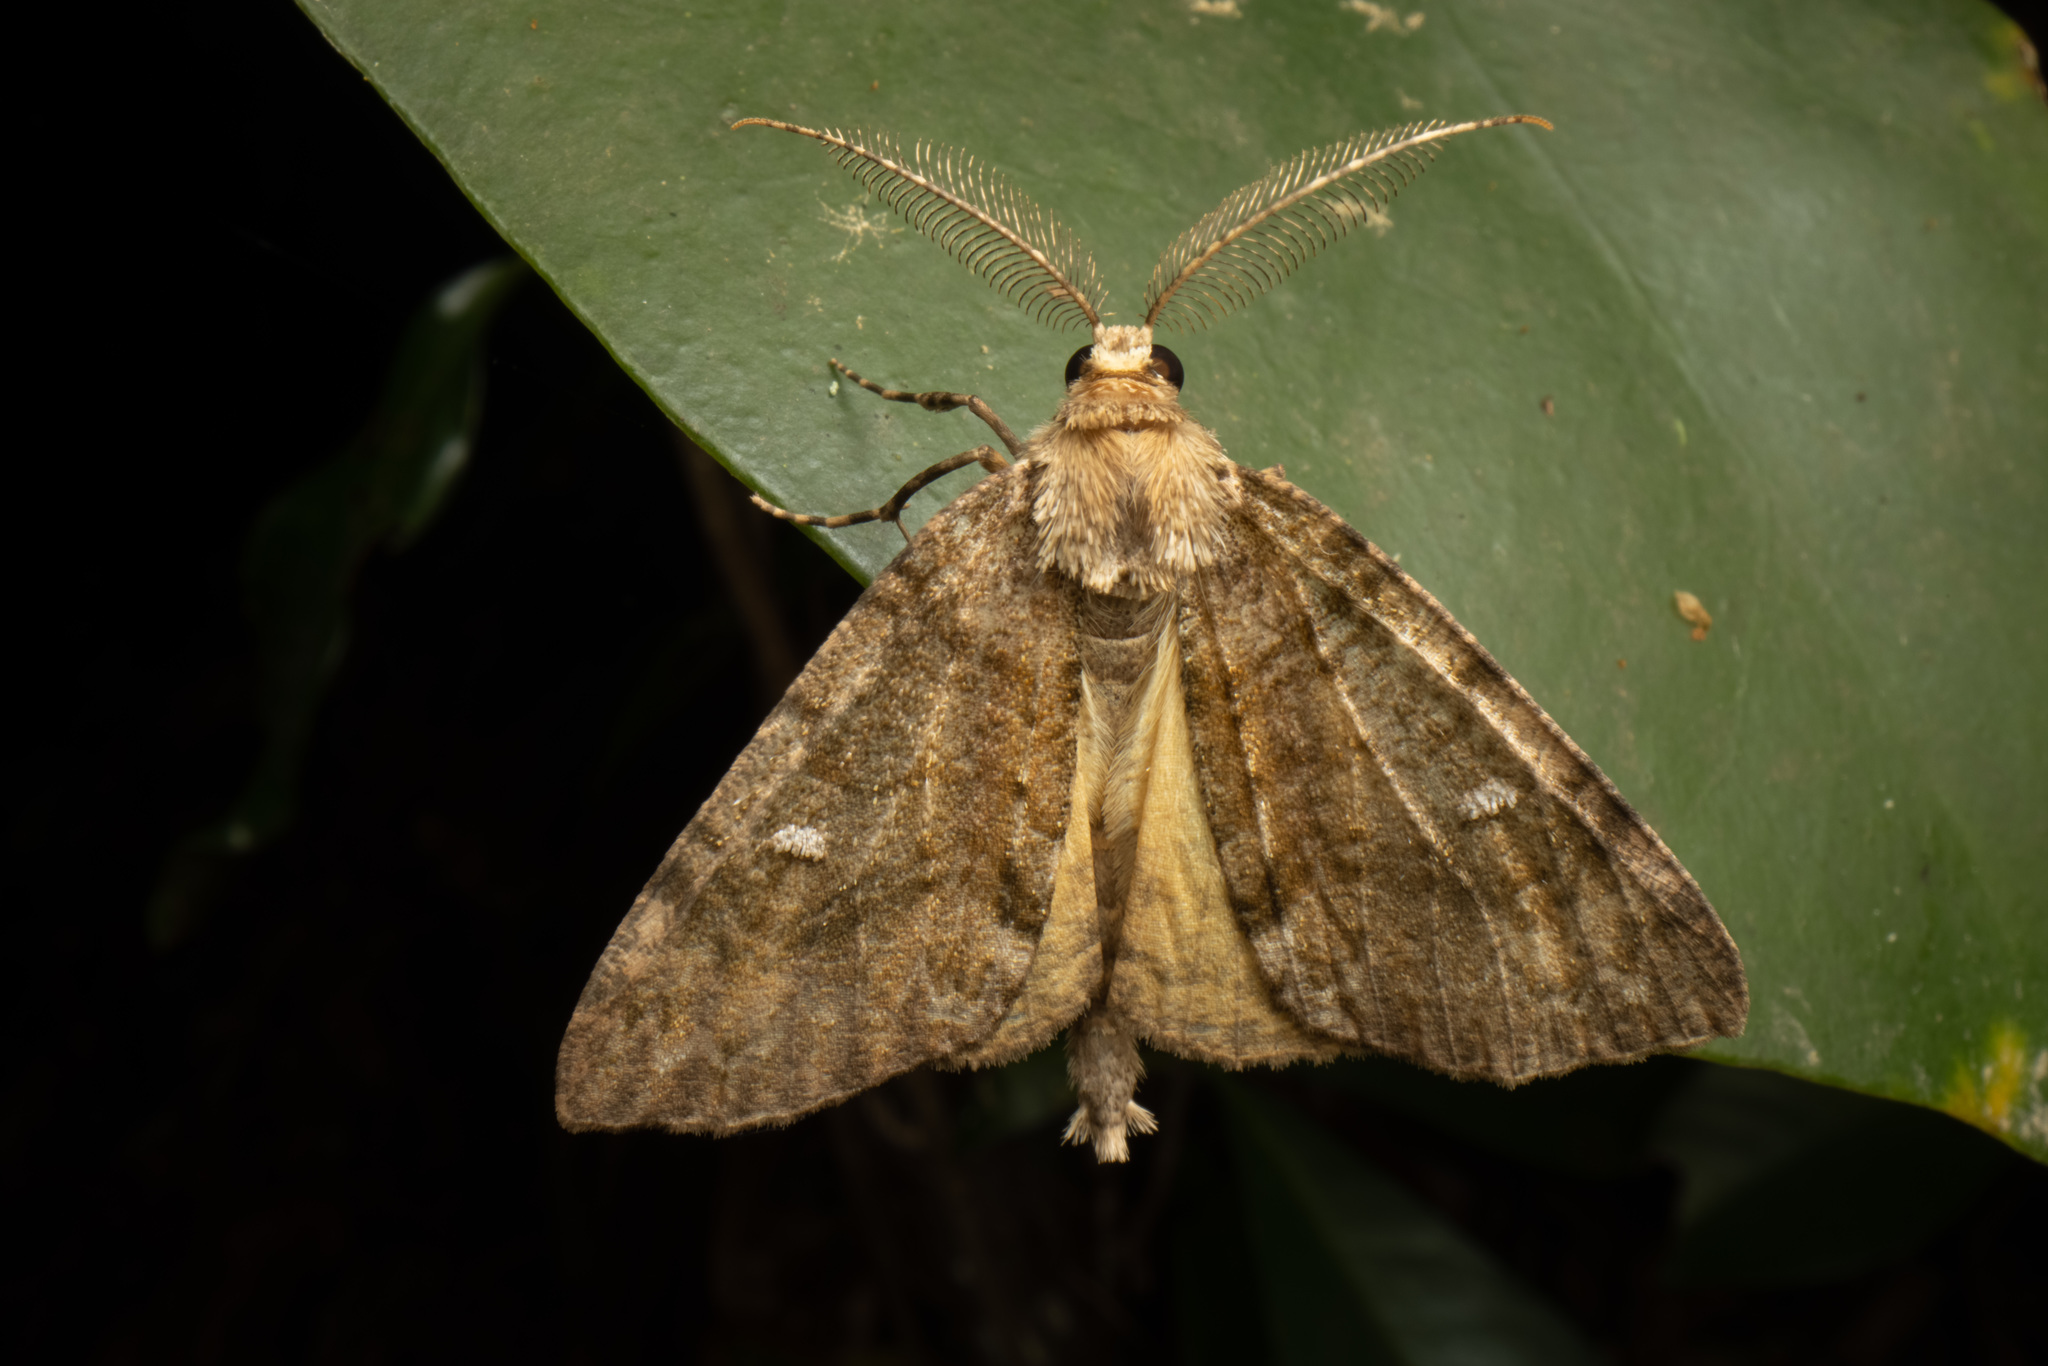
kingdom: Animalia
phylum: Arthropoda
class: Insecta
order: Lepidoptera
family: Geometridae
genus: Pseudocoremia
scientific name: Pseudocoremia suavis
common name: Common forest looper
